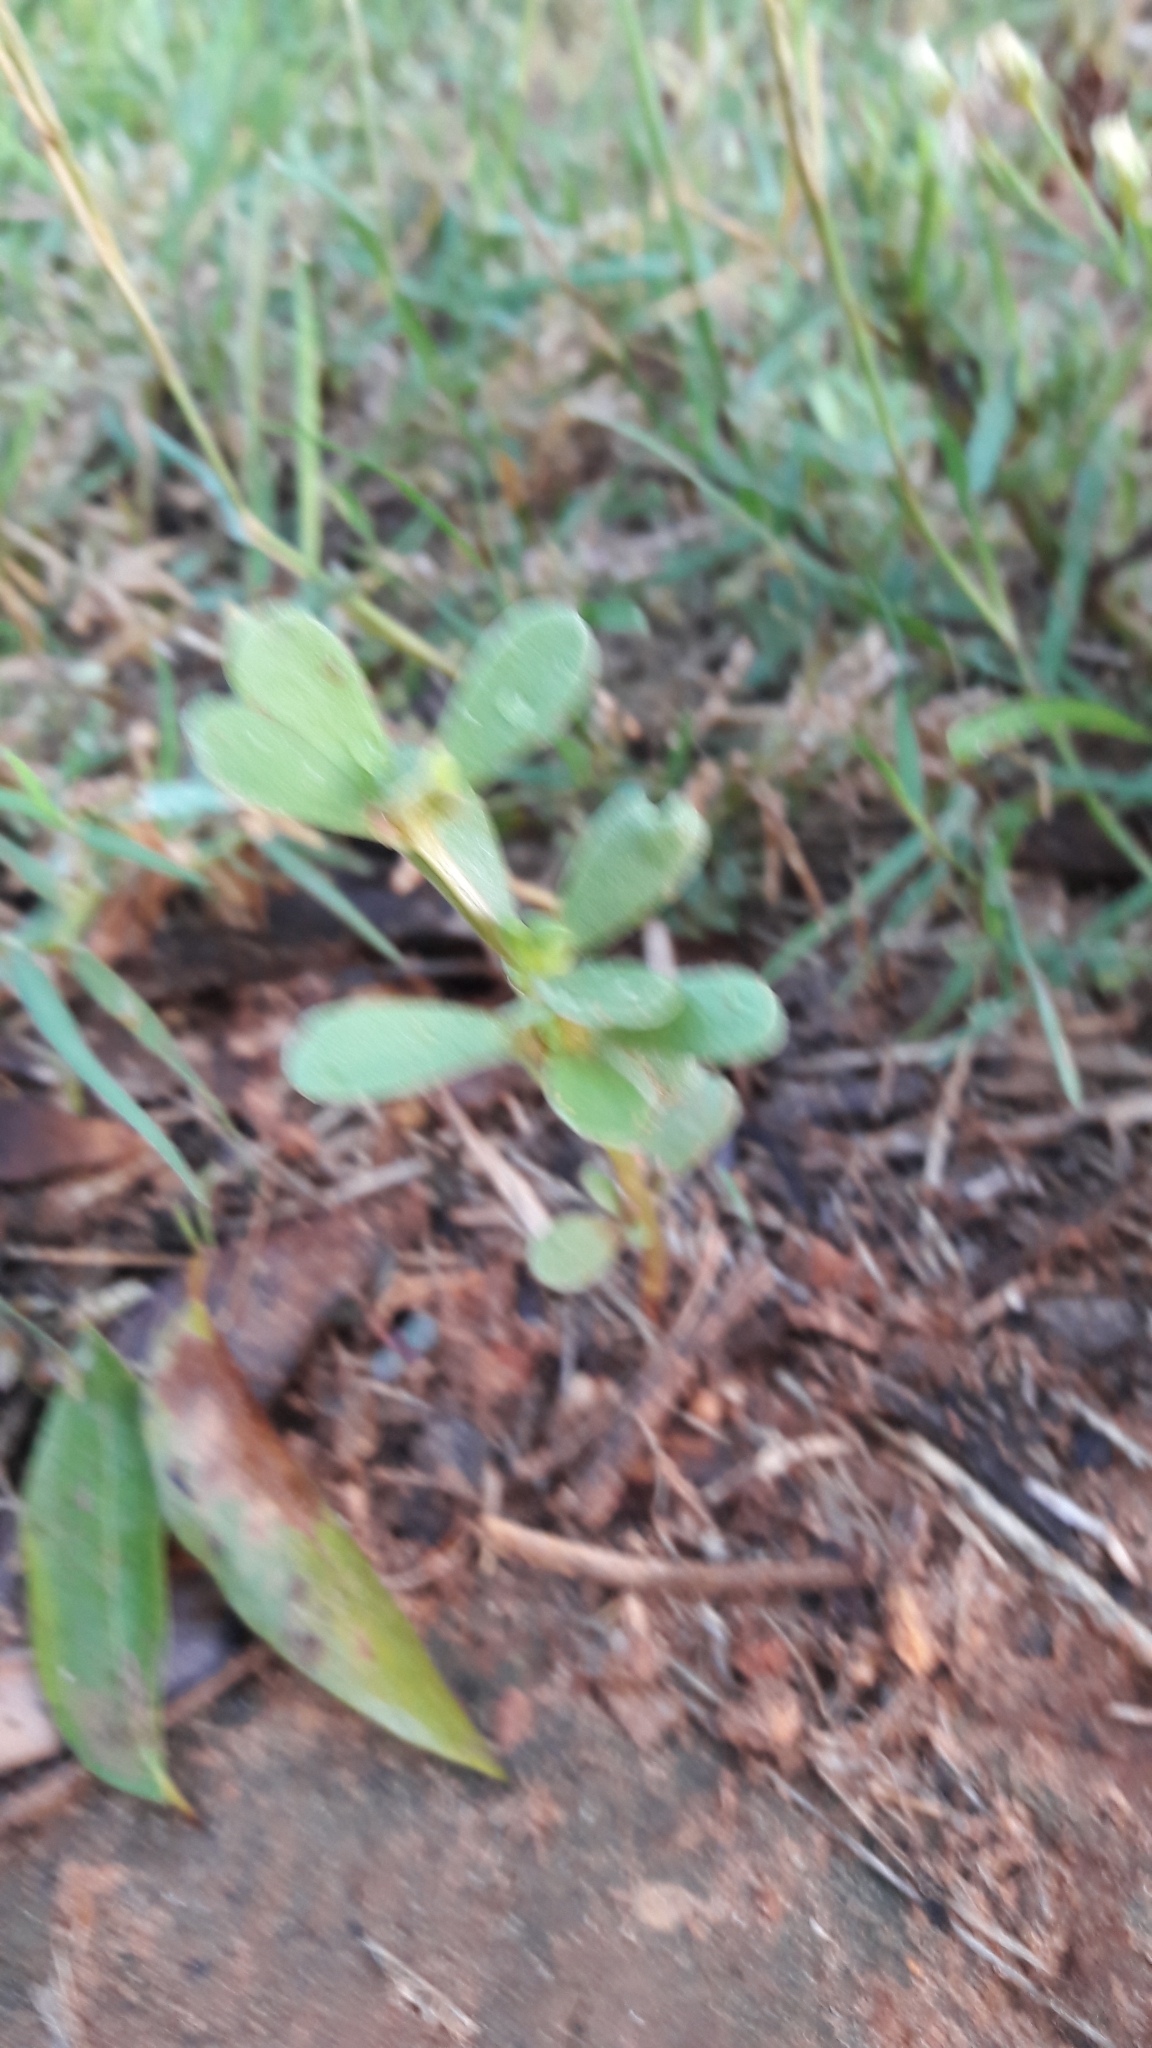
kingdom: Plantae
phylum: Tracheophyta
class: Magnoliopsida
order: Caryophyllales
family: Portulacaceae
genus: Portulaca
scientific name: Portulaca oleracea
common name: Common purslane
